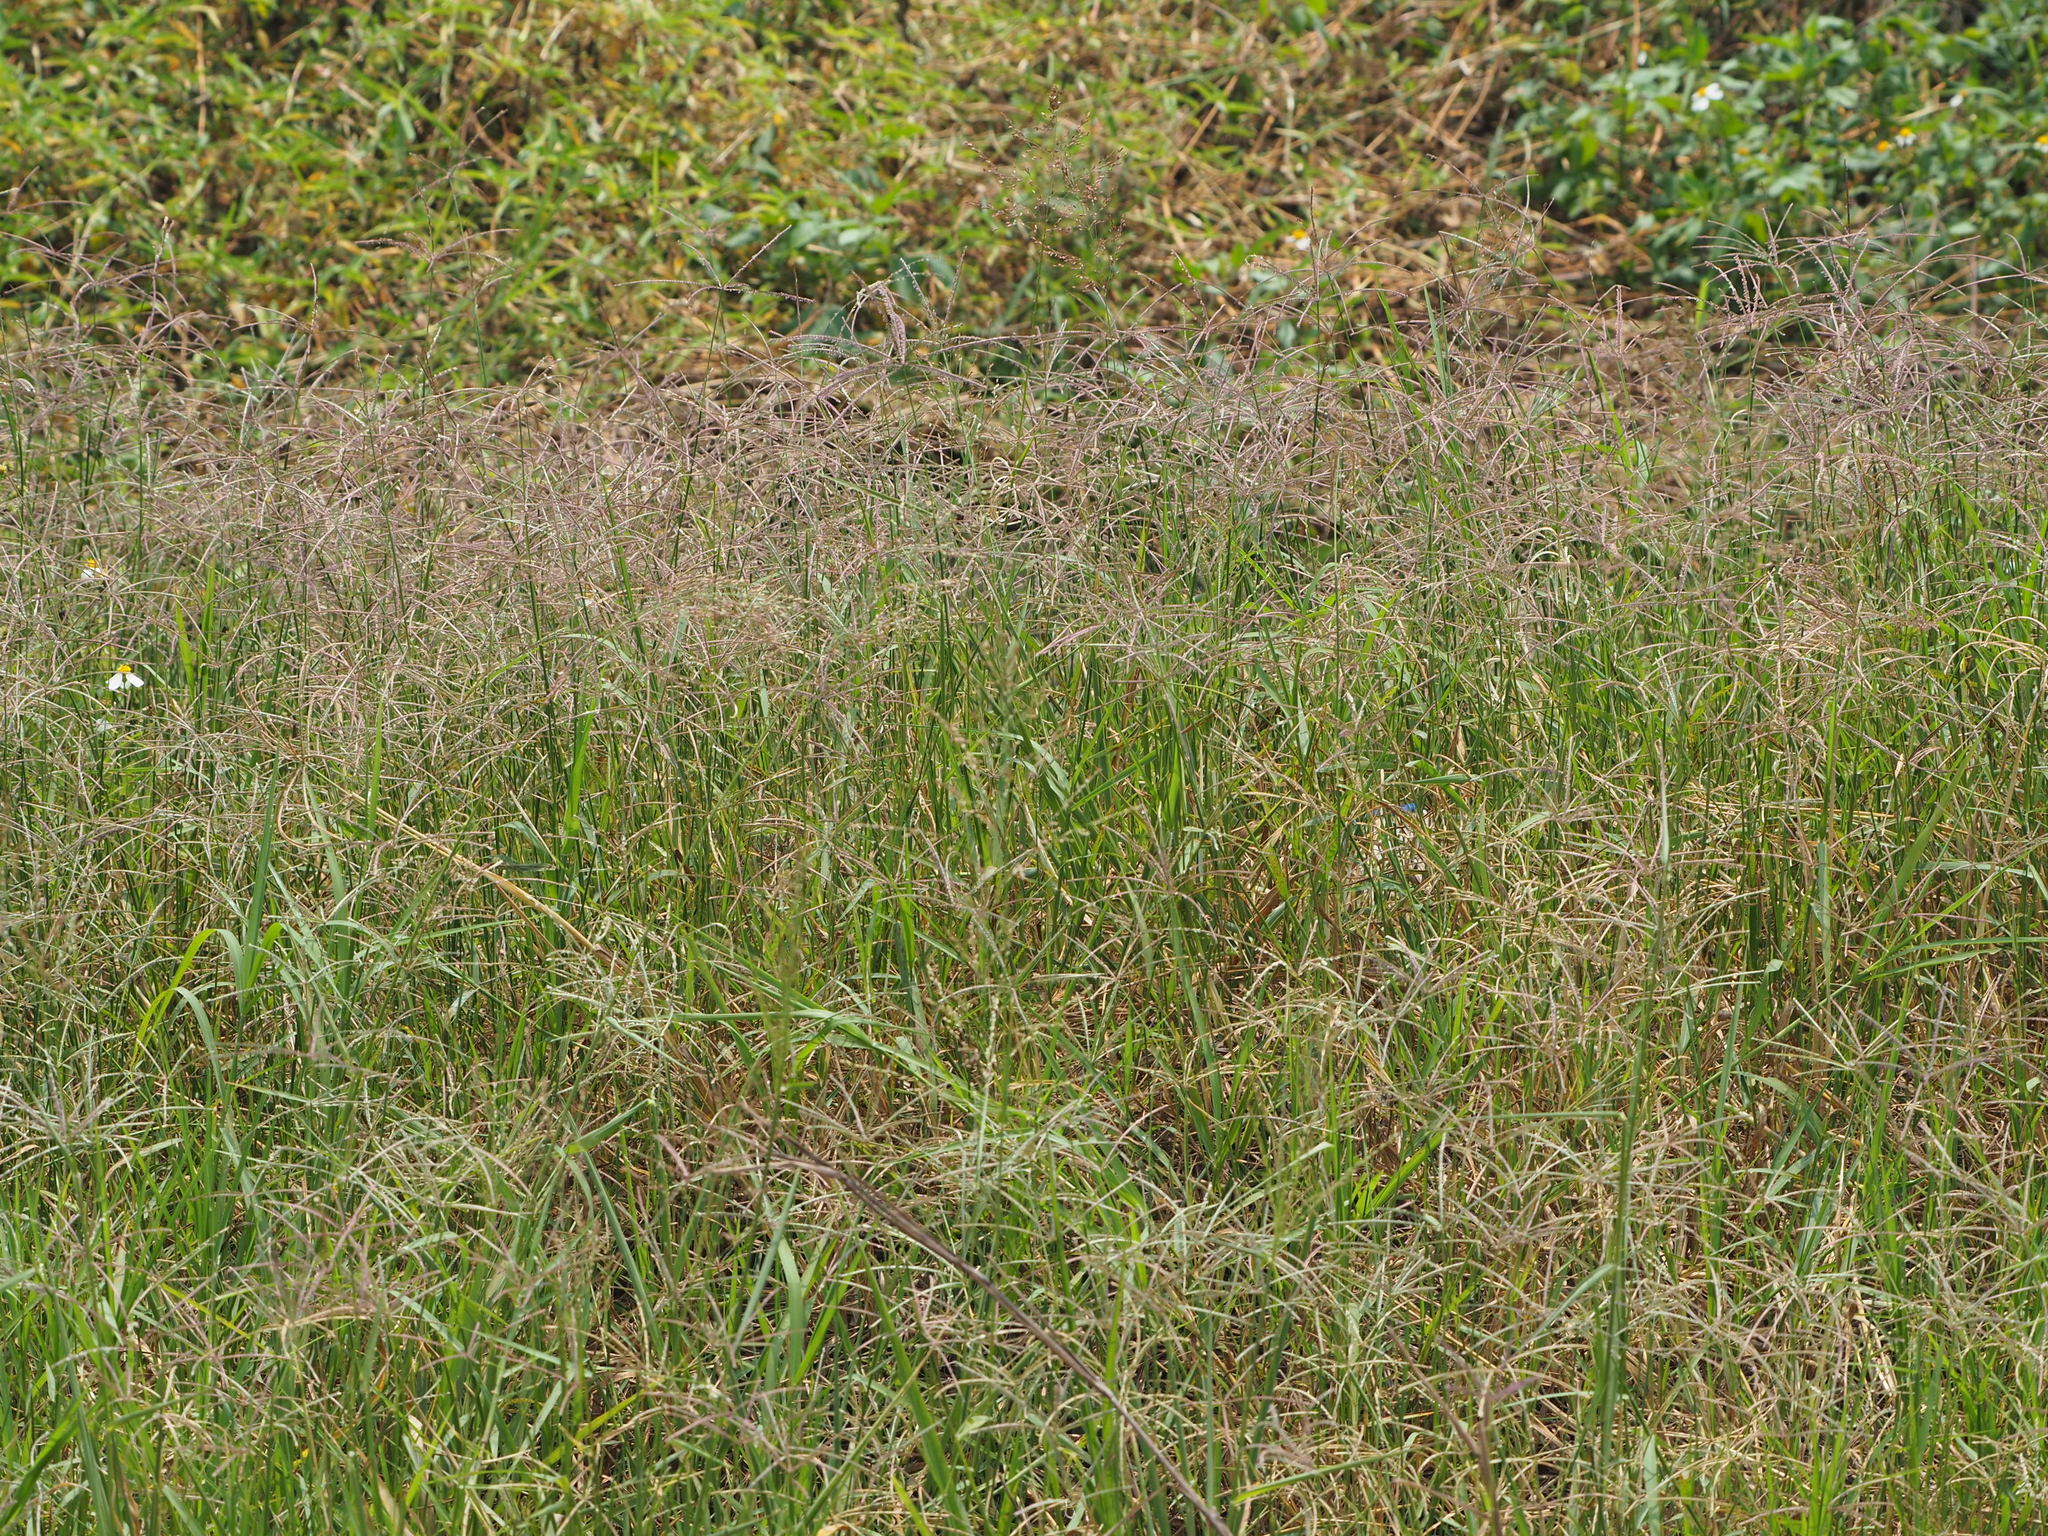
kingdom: Plantae
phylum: Tracheophyta
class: Liliopsida
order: Poales
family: Poaceae
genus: Cynodon
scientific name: Cynodon nlemfuensis
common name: African bermudagrass
